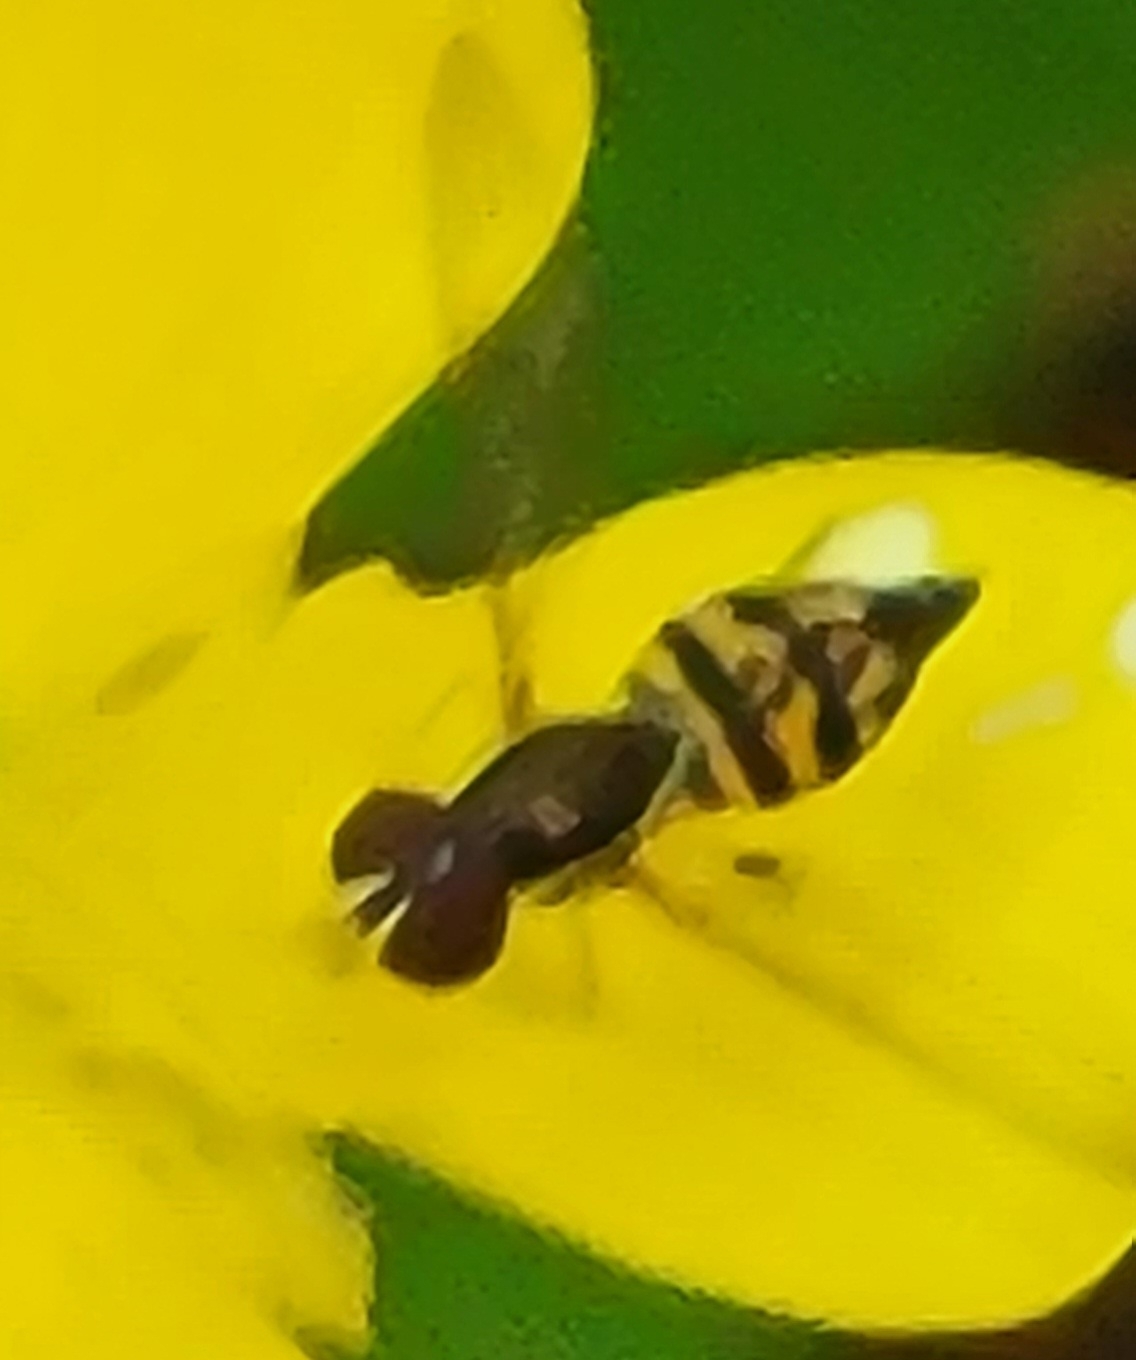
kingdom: Animalia
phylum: Arthropoda
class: Insecta
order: Diptera
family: Syrphidae
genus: Toxomerus
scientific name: Toxomerus geminatus
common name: Eastern calligrapher
